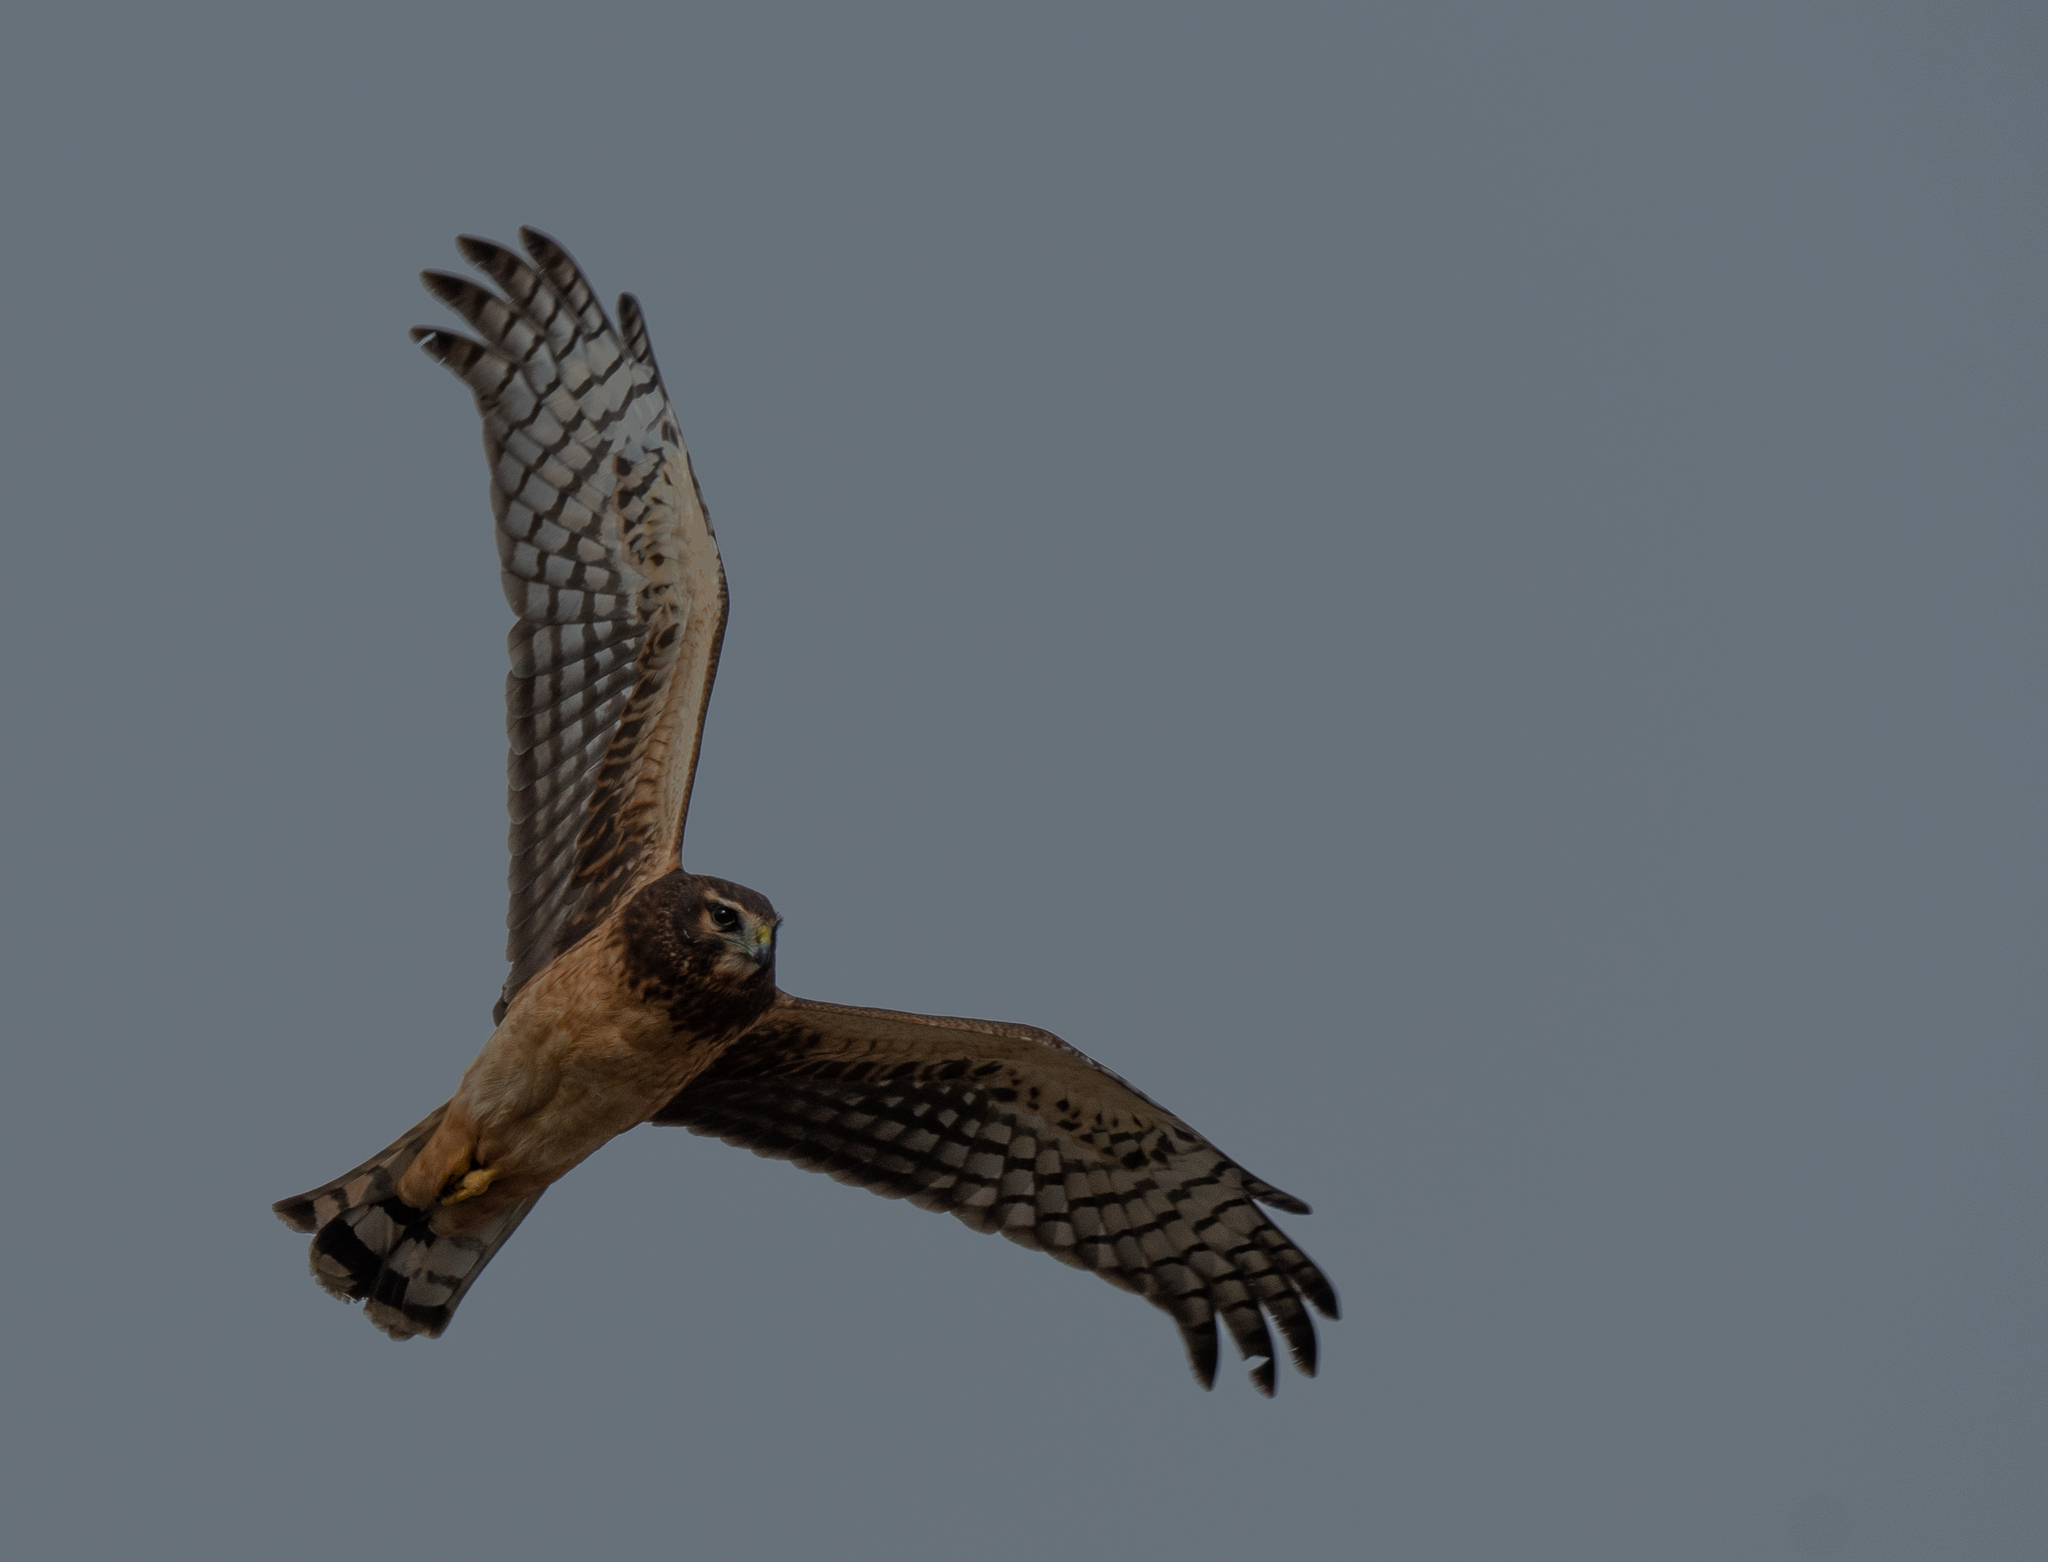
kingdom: Animalia
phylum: Chordata
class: Aves
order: Accipitriformes
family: Accipitridae
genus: Circus
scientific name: Circus cyaneus
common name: Hen harrier
